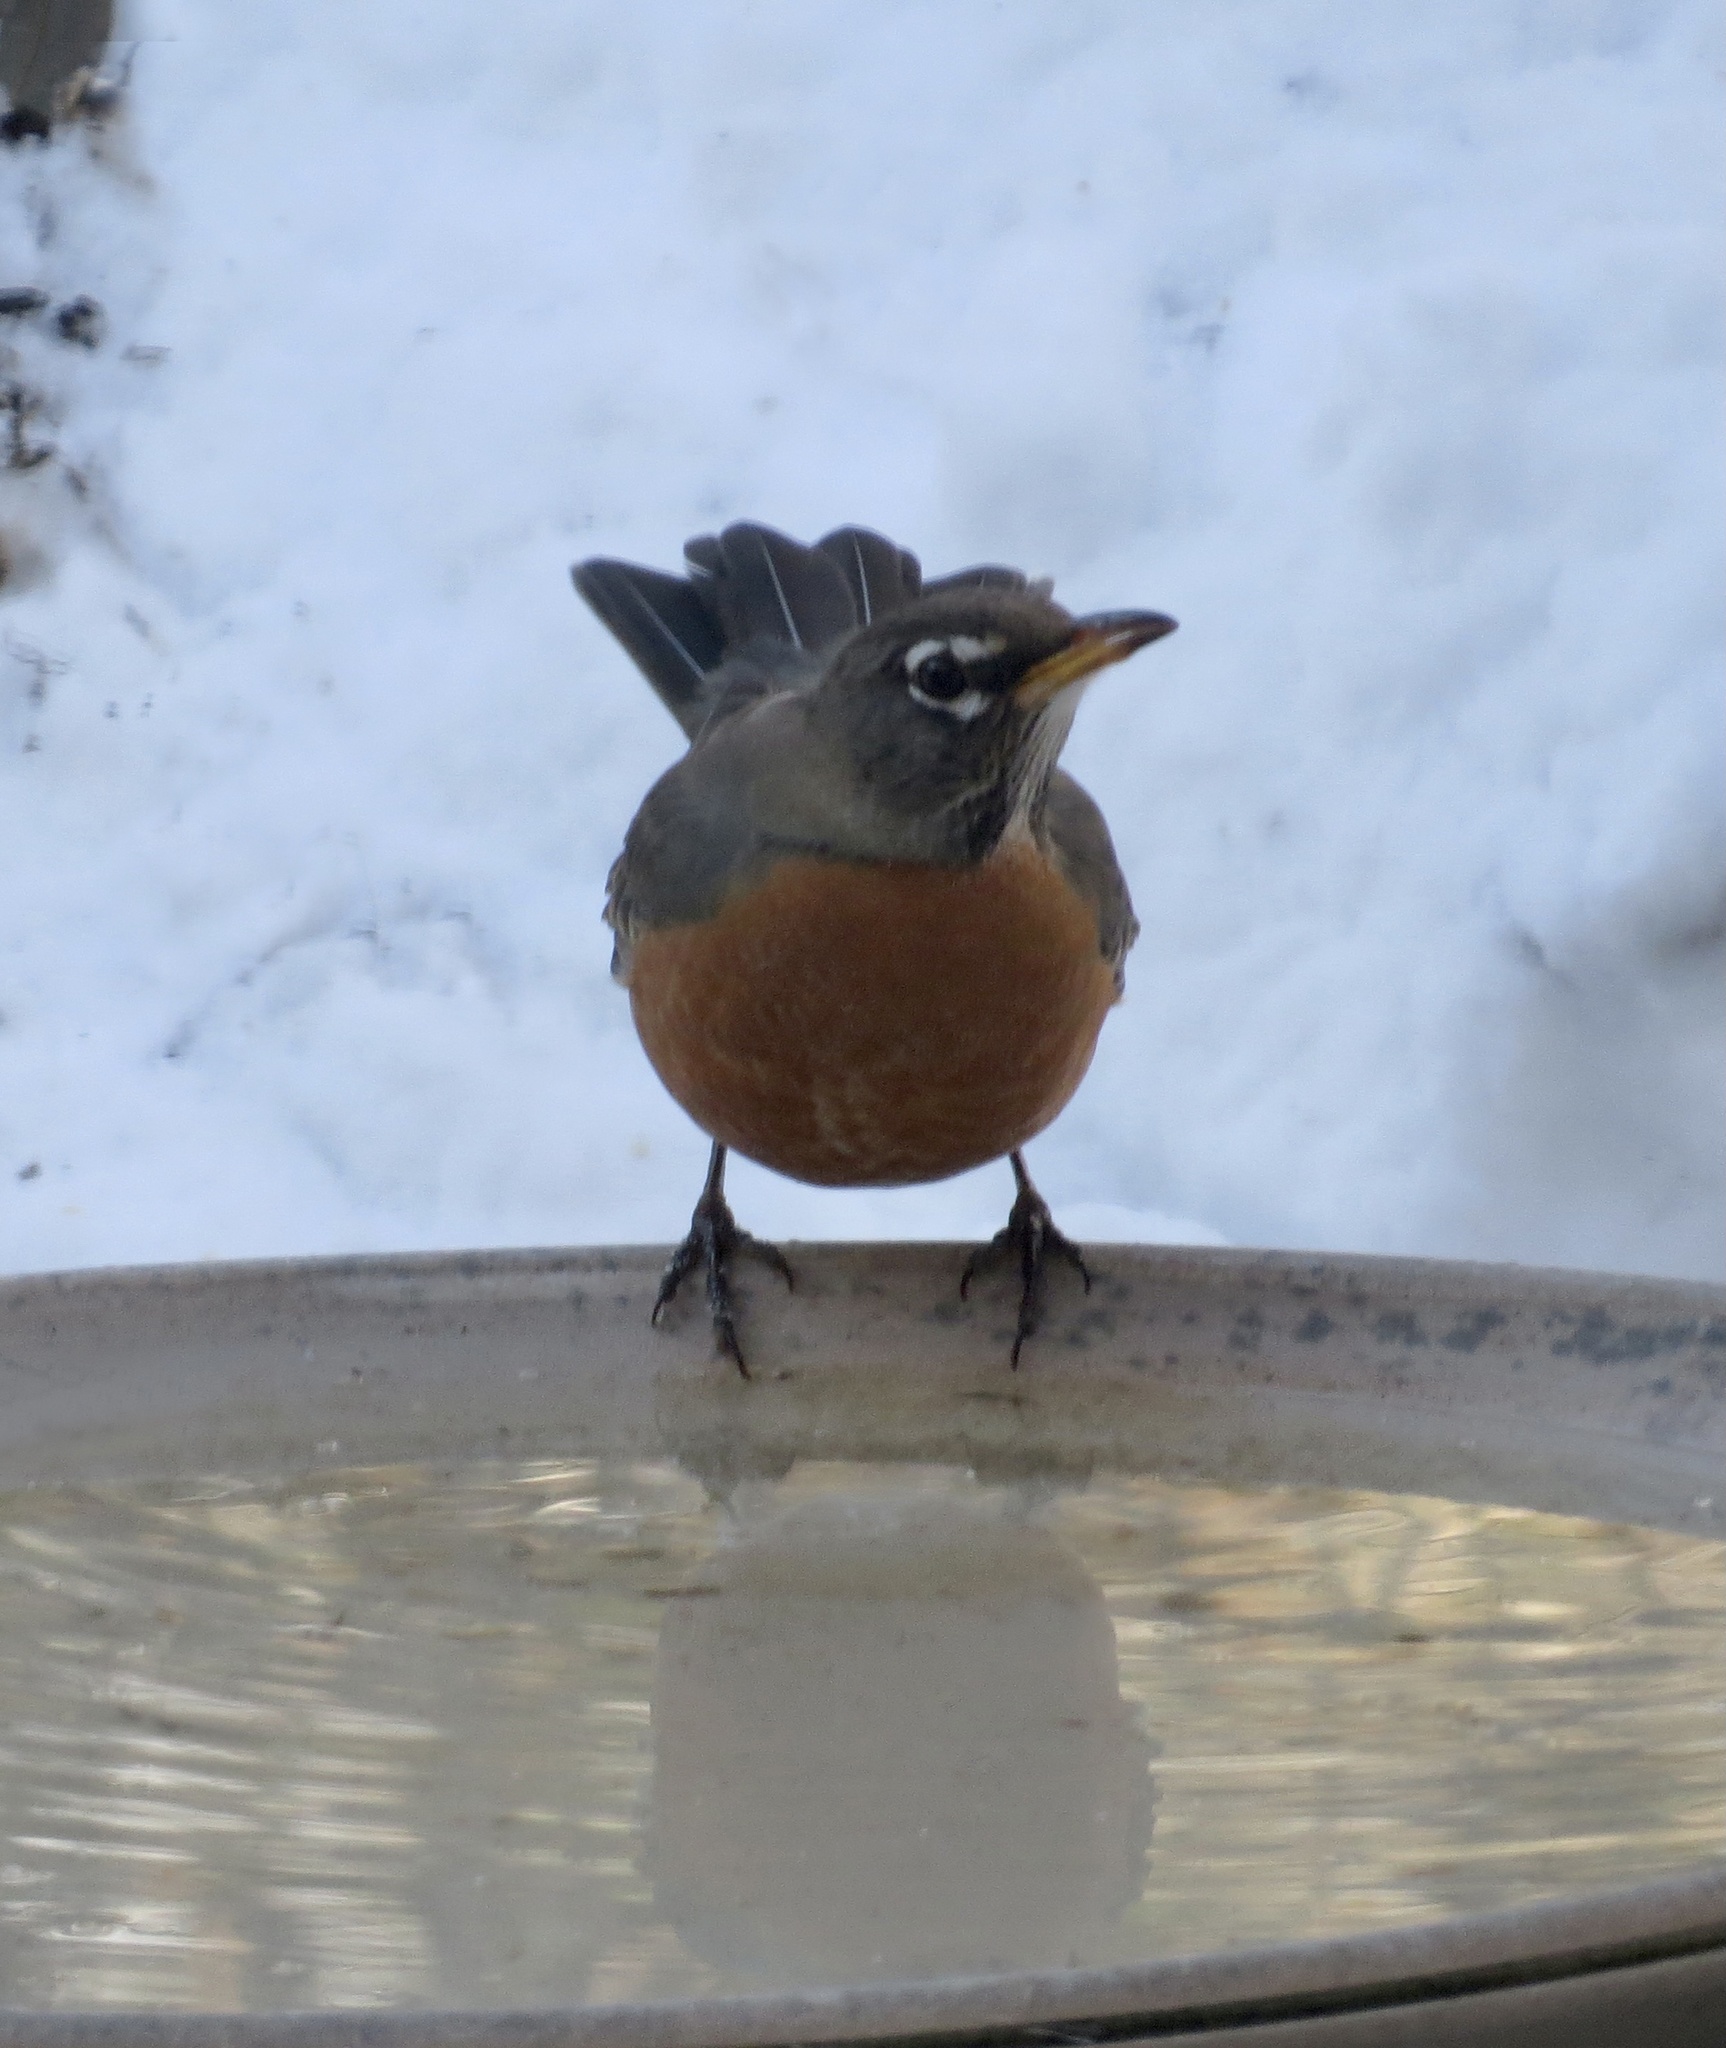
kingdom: Animalia
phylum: Chordata
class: Aves
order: Passeriformes
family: Turdidae
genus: Turdus
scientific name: Turdus migratorius
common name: American robin
